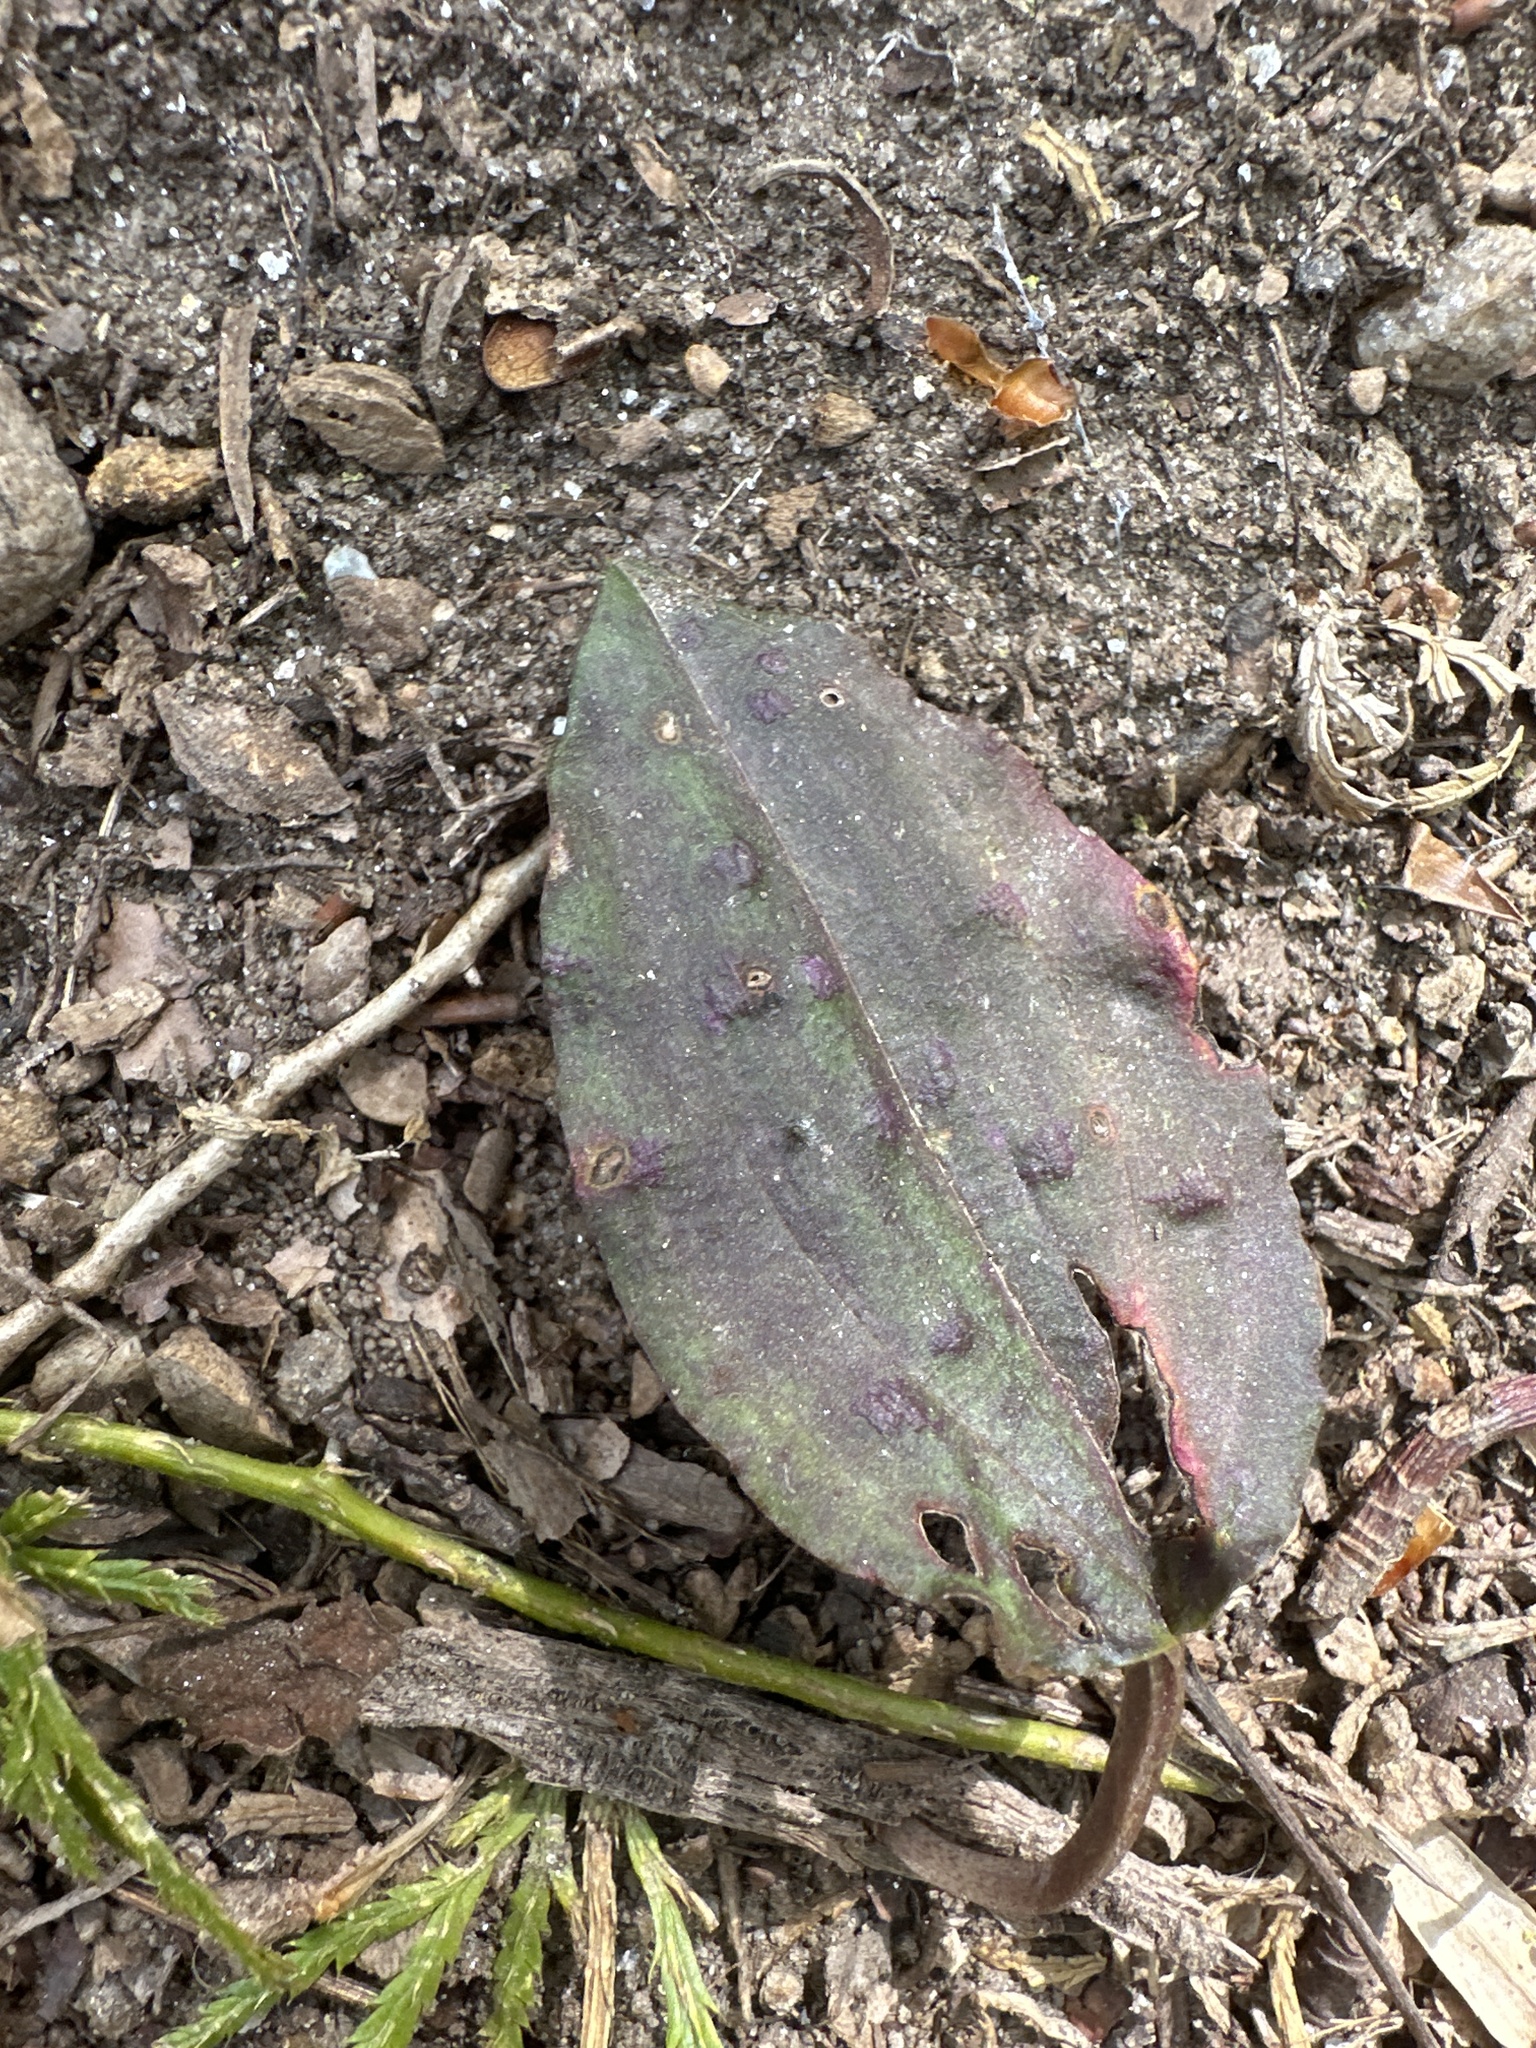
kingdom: Plantae
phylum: Tracheophyta
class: Liliopsida
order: Asparagales
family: Orchidaceae
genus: Tipularia
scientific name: Tipularia discolor
